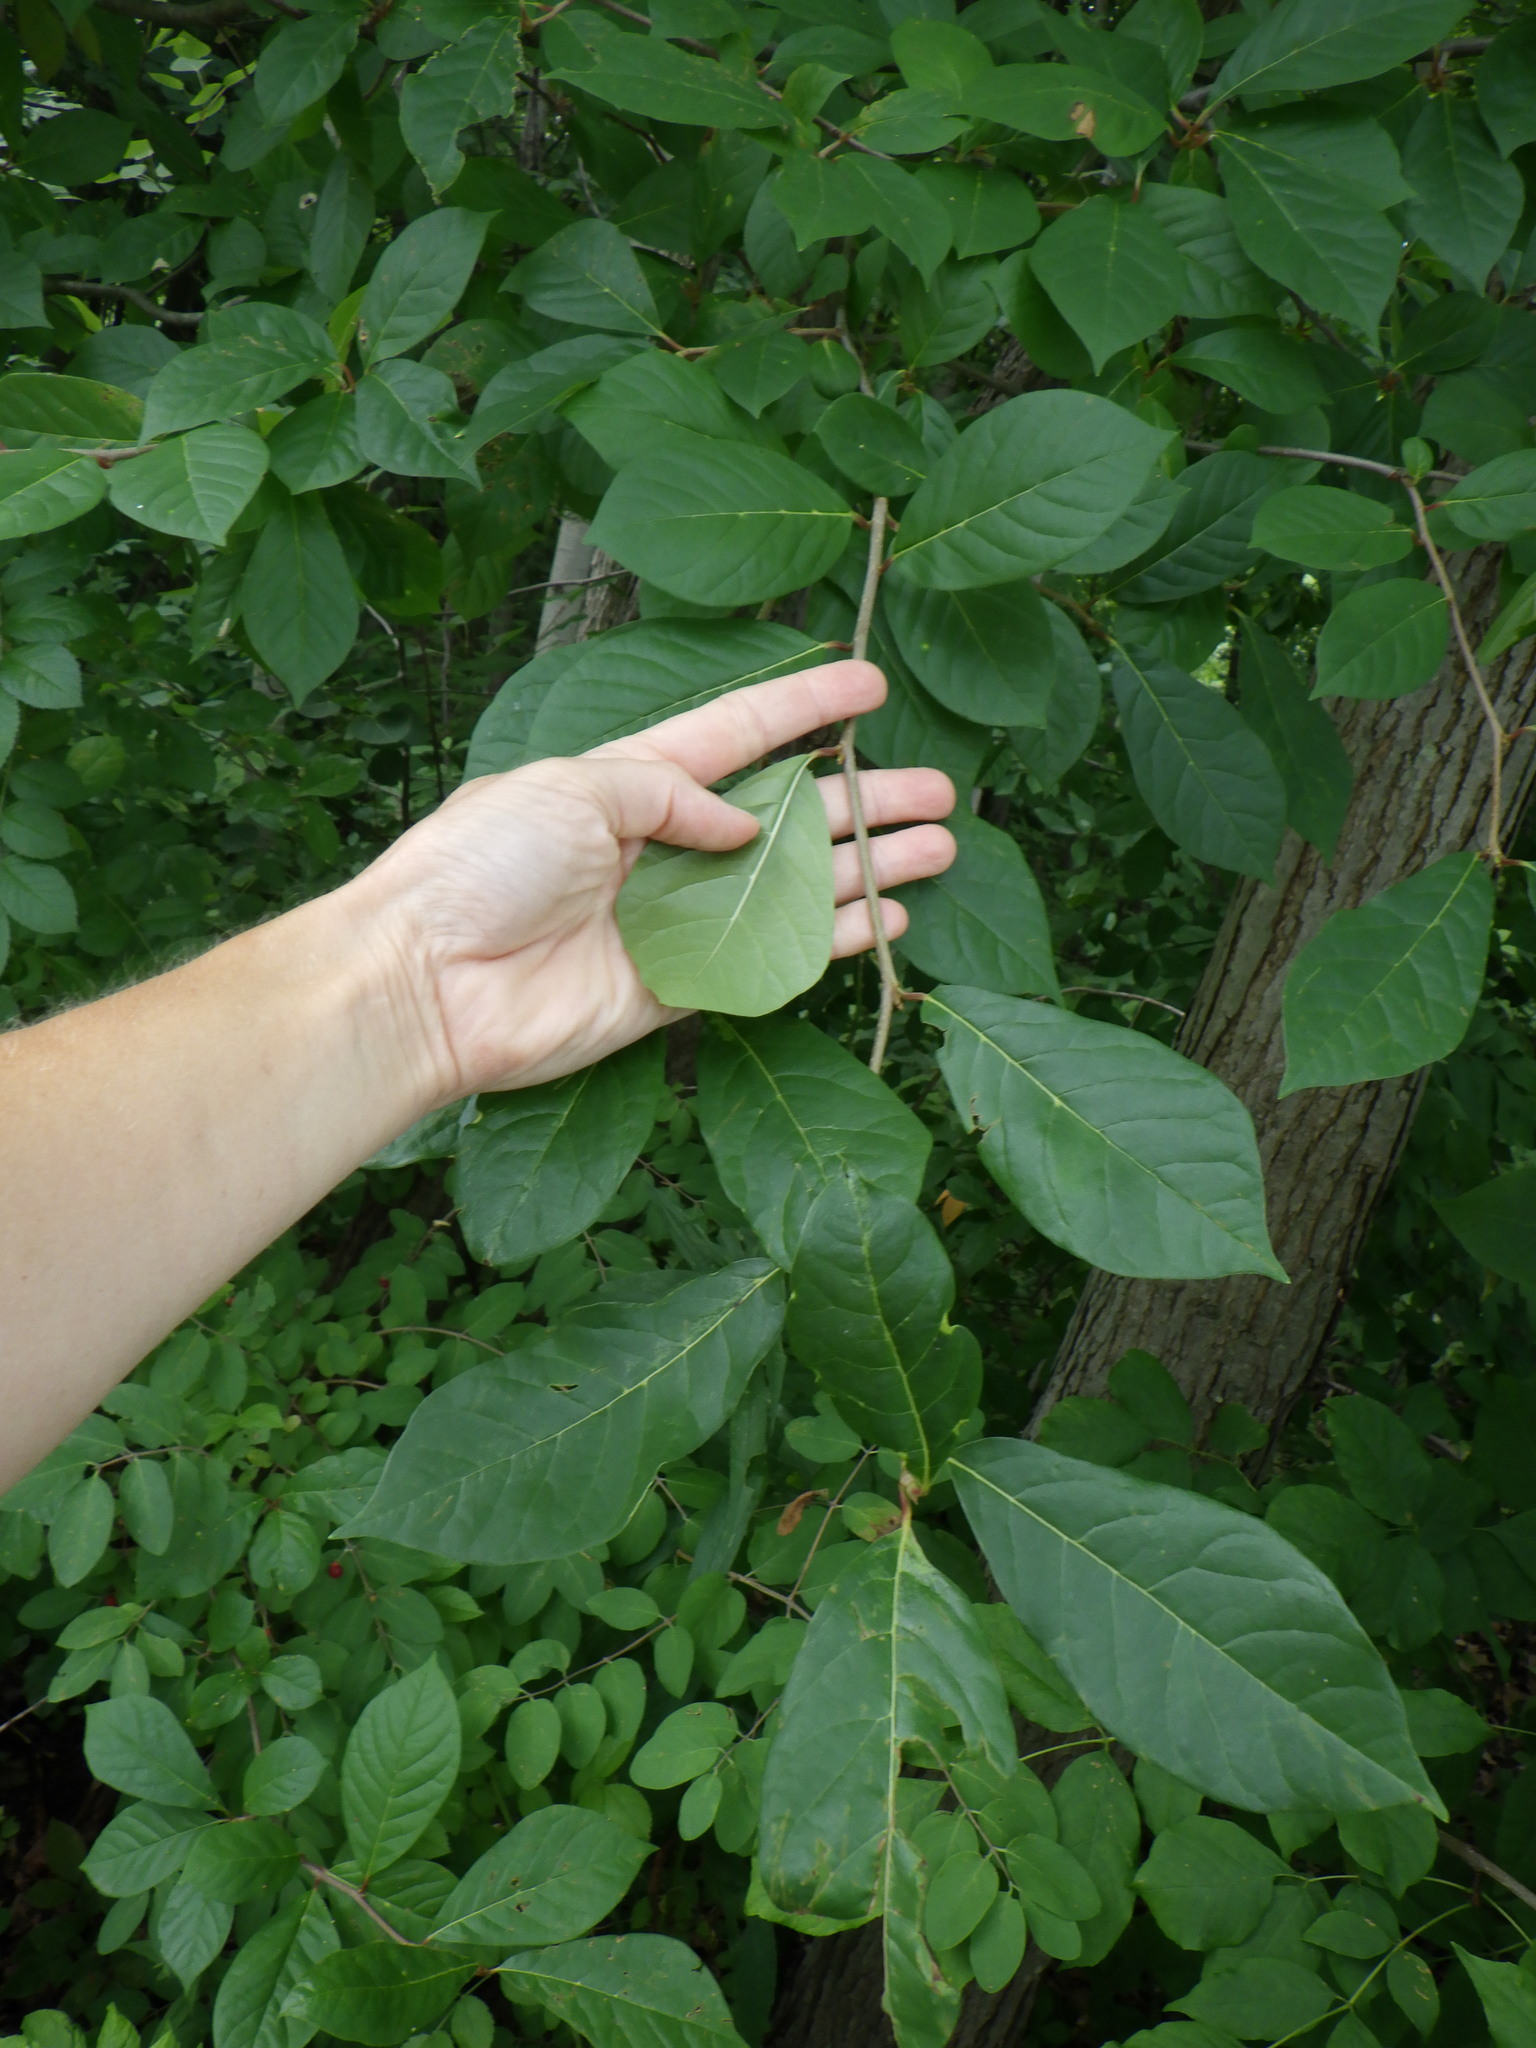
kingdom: Plantae
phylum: Tracheophyta
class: Magnoliopsida
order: Cornales
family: Nyssaceae
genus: Nyssa
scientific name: Nyssa sylvatica
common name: Black tupelo
